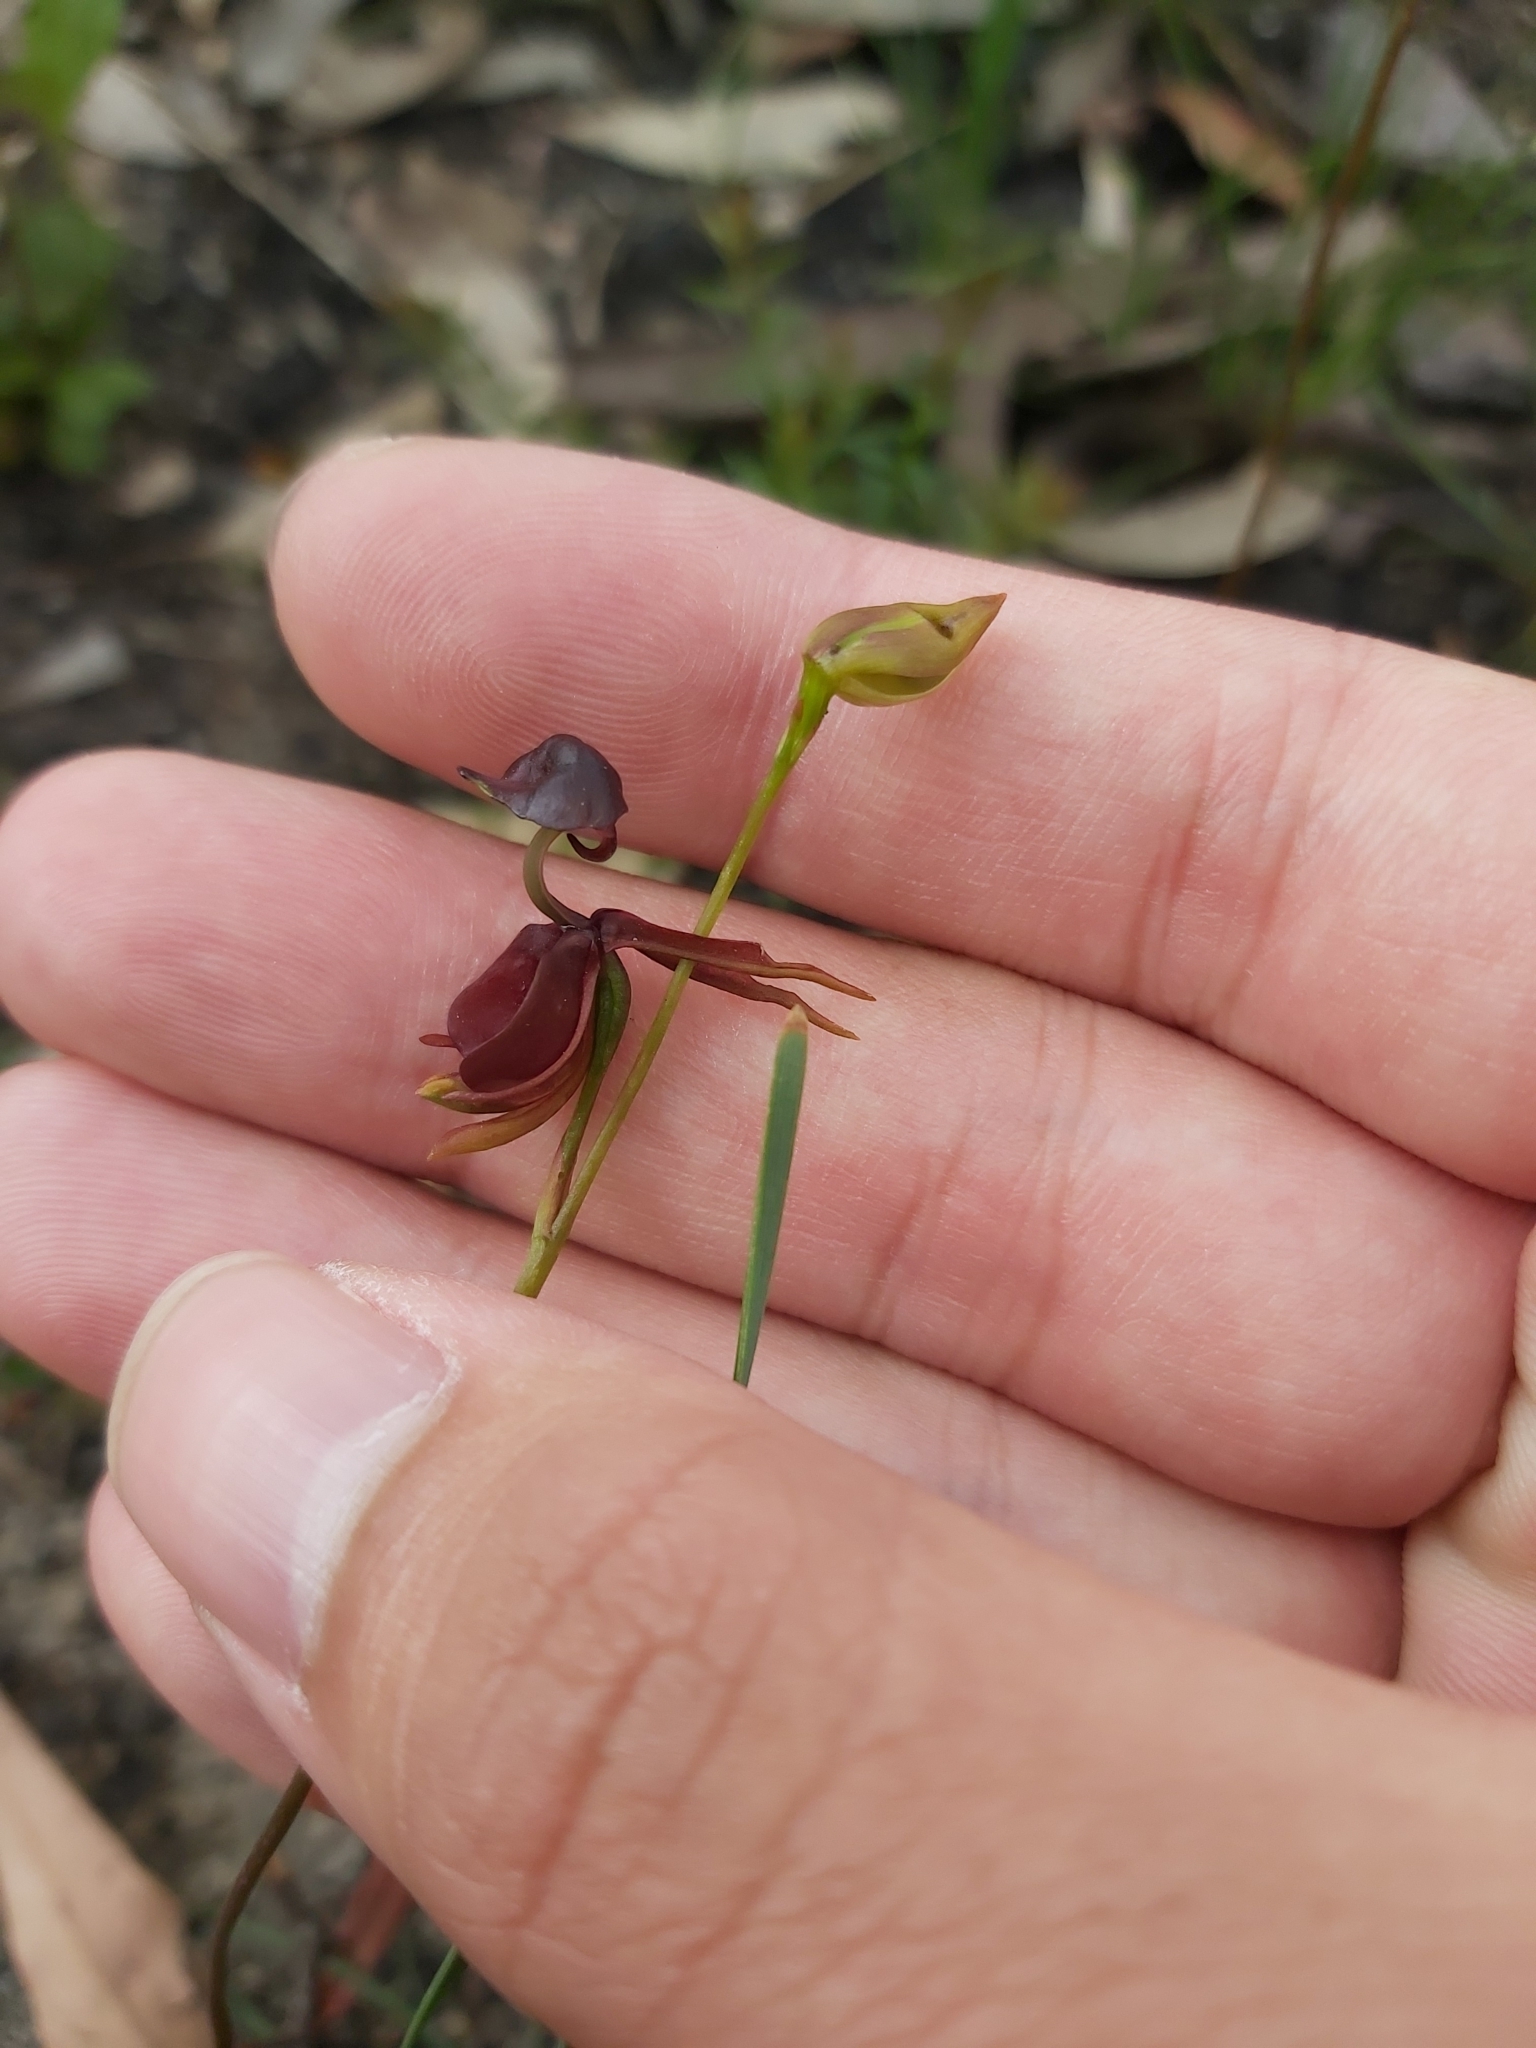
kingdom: Plantae
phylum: Tracheophyta
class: Liliopsida
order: Asparagales
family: Orchidaceae
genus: Caleana
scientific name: Caleana major
